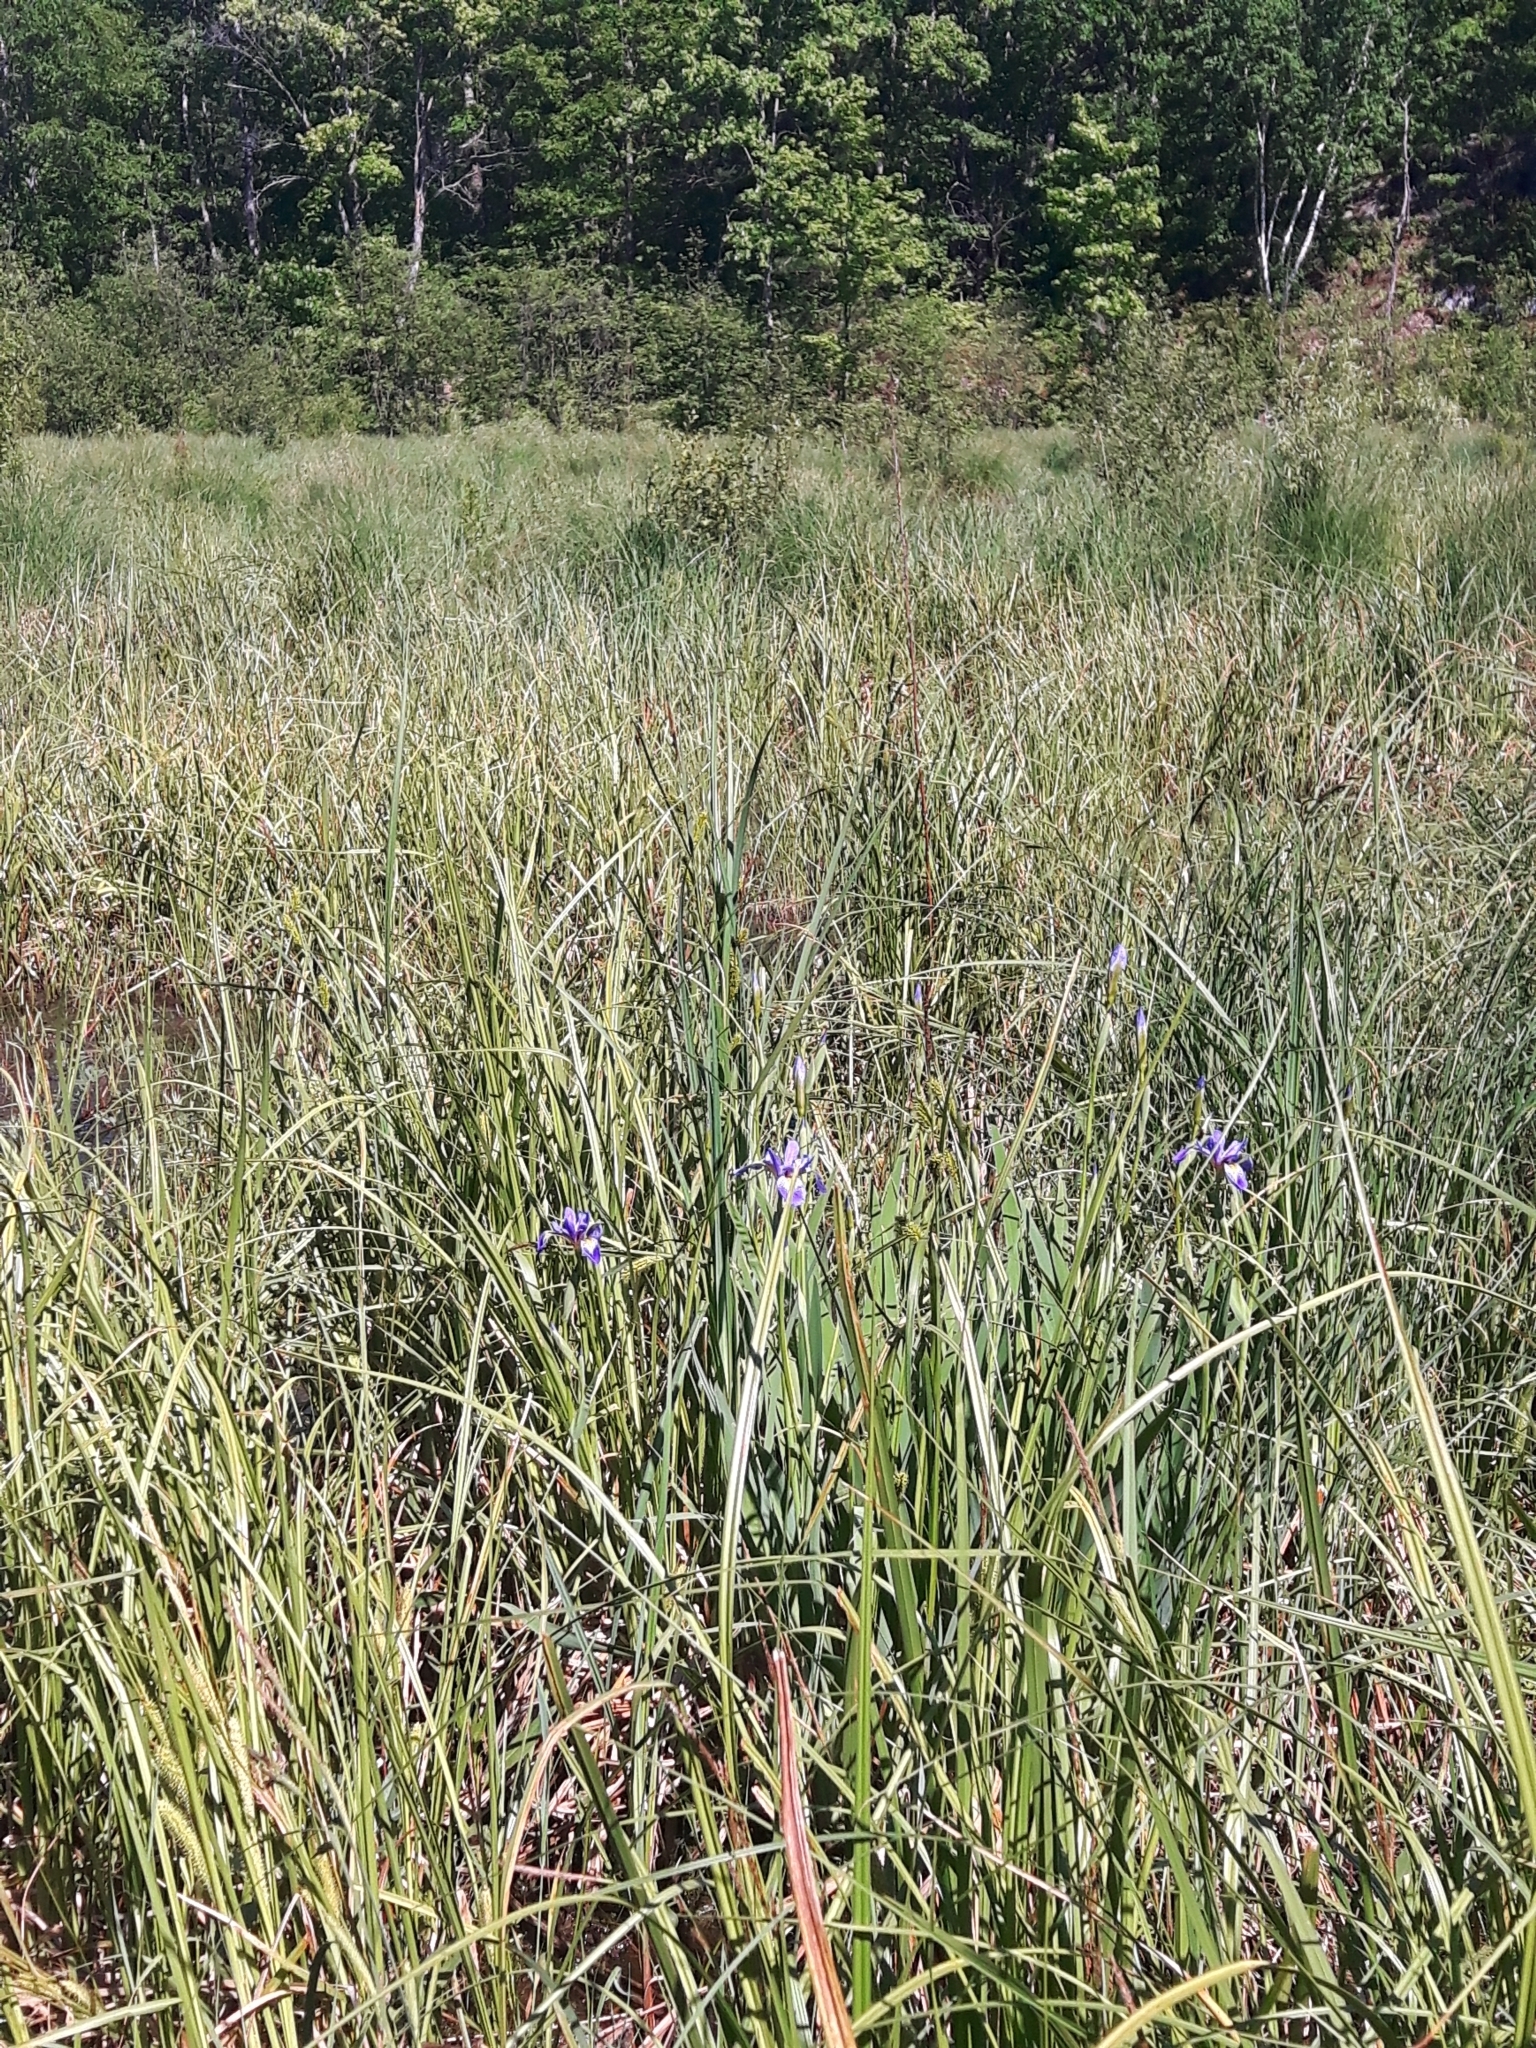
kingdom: Plantae
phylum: Tracheophyta
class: Liliopsida
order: Asparagales
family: Iridaceae
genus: Iris
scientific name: Iris versicolor
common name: Purple iris
